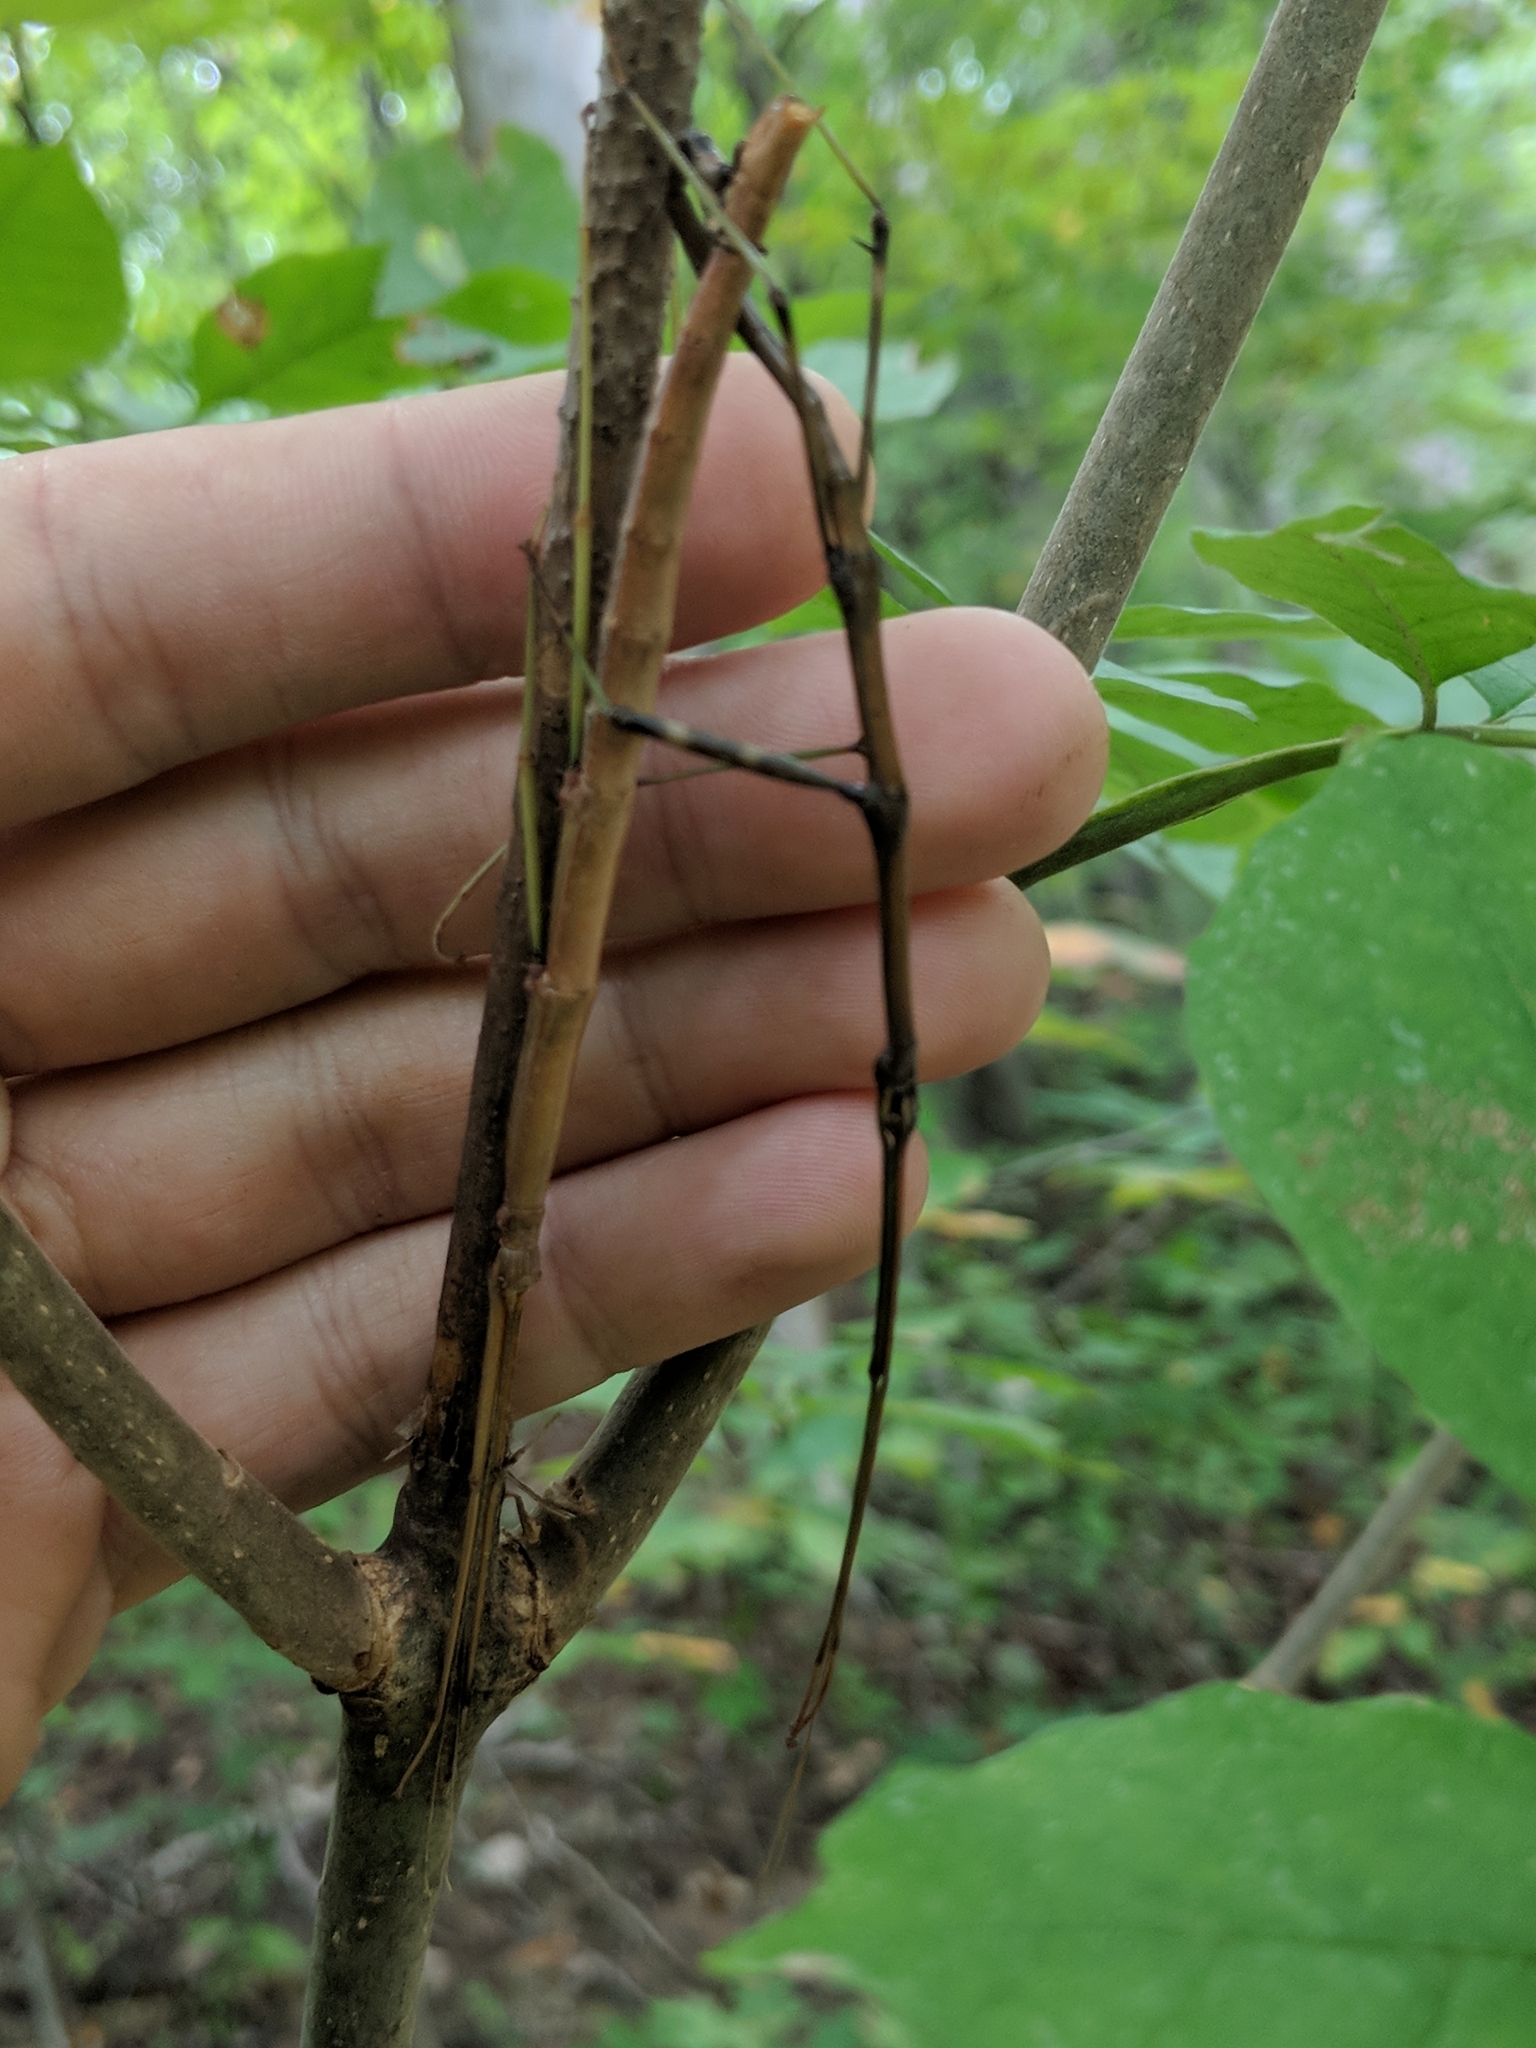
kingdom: Animalia
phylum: Arthropoda
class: Insecta
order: Phasmida
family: Diapheromeridae
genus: Diapheromera
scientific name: Diapheromera femorata
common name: Common american walkingstick
